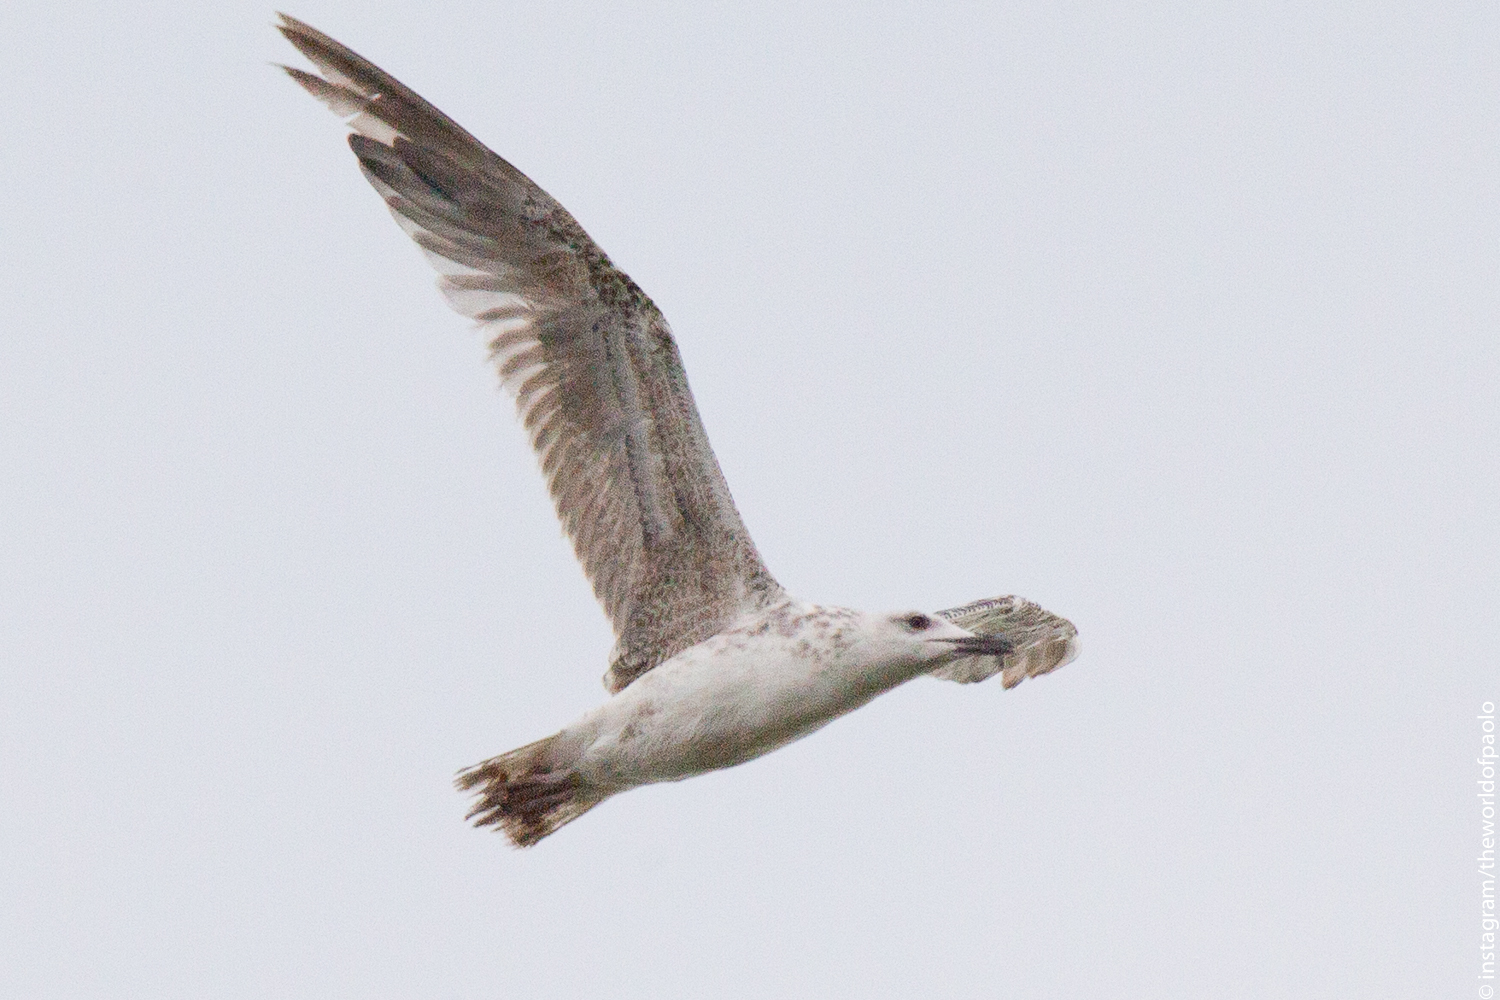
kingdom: Animalia
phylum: Chordata
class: Aves
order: Charadriiformes
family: Laridae
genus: Larus
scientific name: Larus michahellis
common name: Yellow-legged gull
